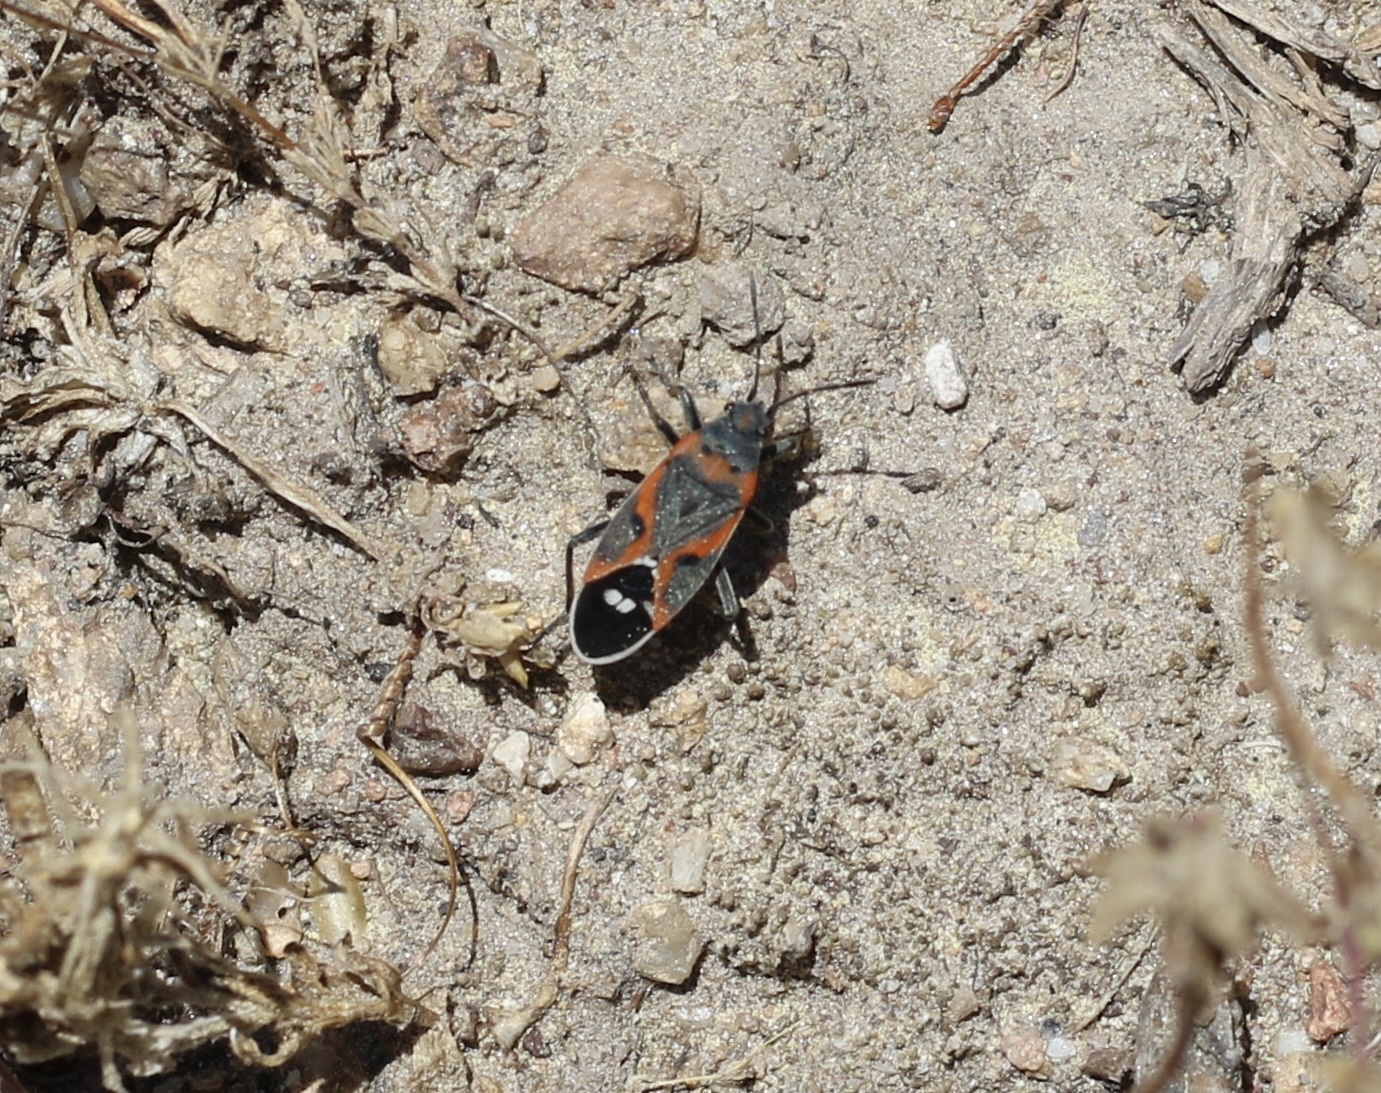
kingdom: Animalia
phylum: Arthropoda
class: Insecta
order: Hemiptera
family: Lygaeidae
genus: Lygaeus
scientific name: Lygaeus kalmii
